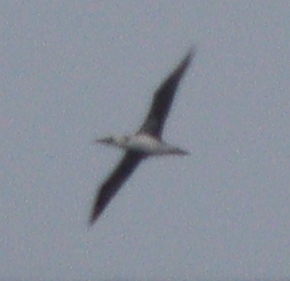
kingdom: Animalia
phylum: Chordata
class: Aves
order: Suliformes
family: Sulidae
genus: Morus
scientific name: Morus bassanus
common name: Northern gannet
